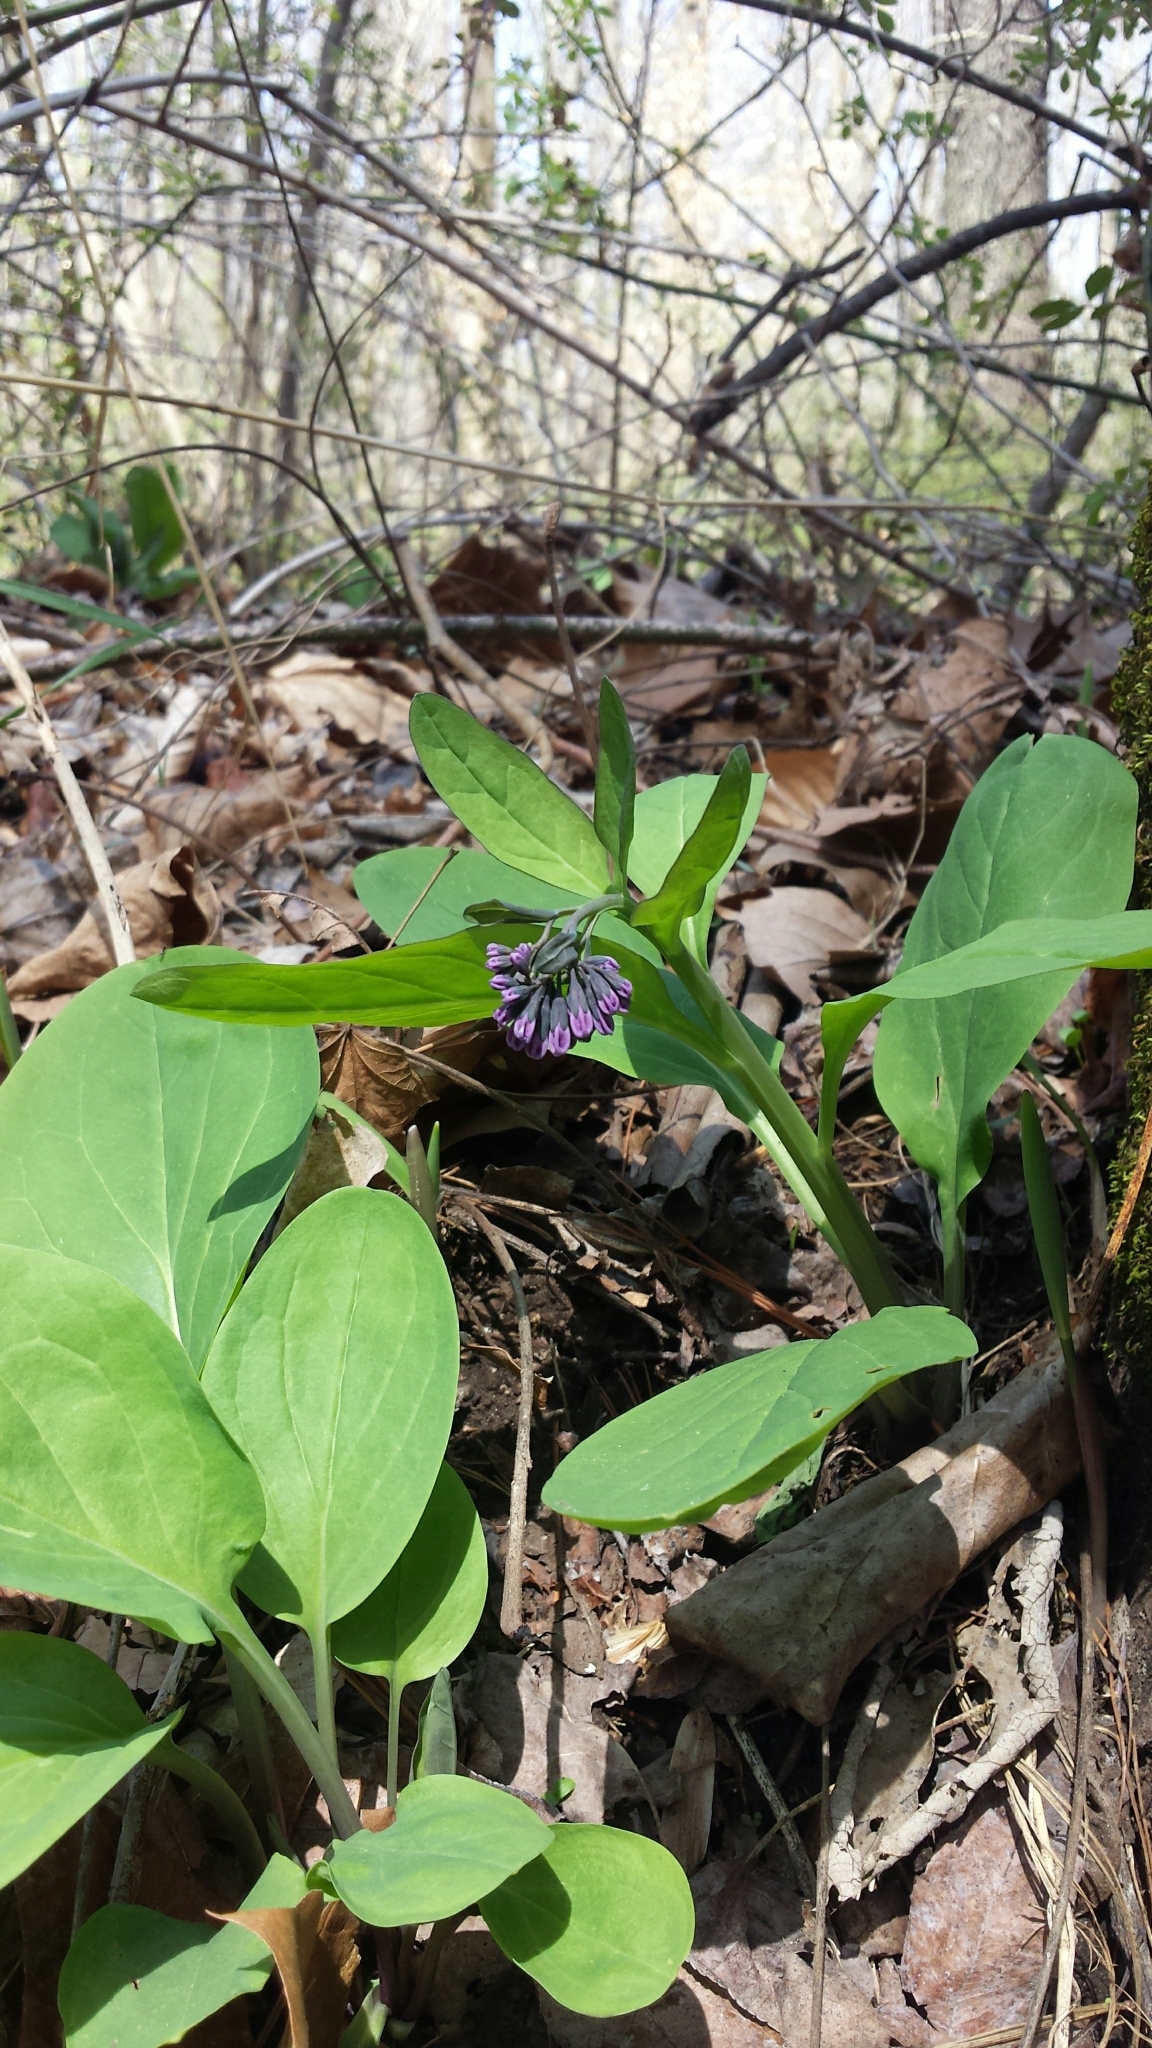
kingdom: Plantae
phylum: Tracheophyta
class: Magnoliopsida
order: Boraginales
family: Boraginaceae
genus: Mertensia
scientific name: Mertensia virginica
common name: Virginia bluebells
